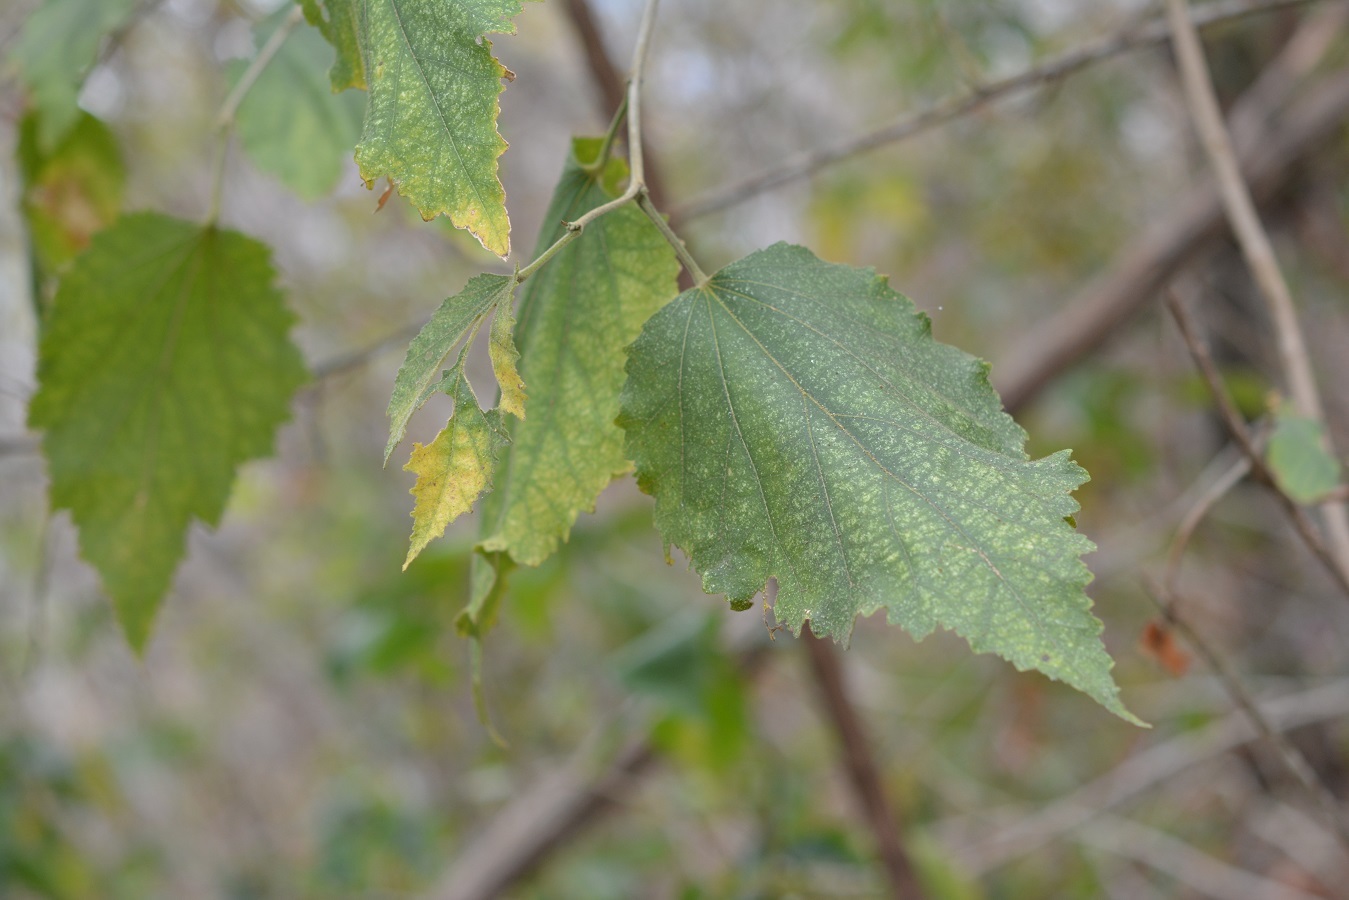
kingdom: Plantae
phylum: Tracheophyta
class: Magnoliopsida
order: Malvales
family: Malvaceae
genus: Robinsonella
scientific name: Robinsonella pilosissima
